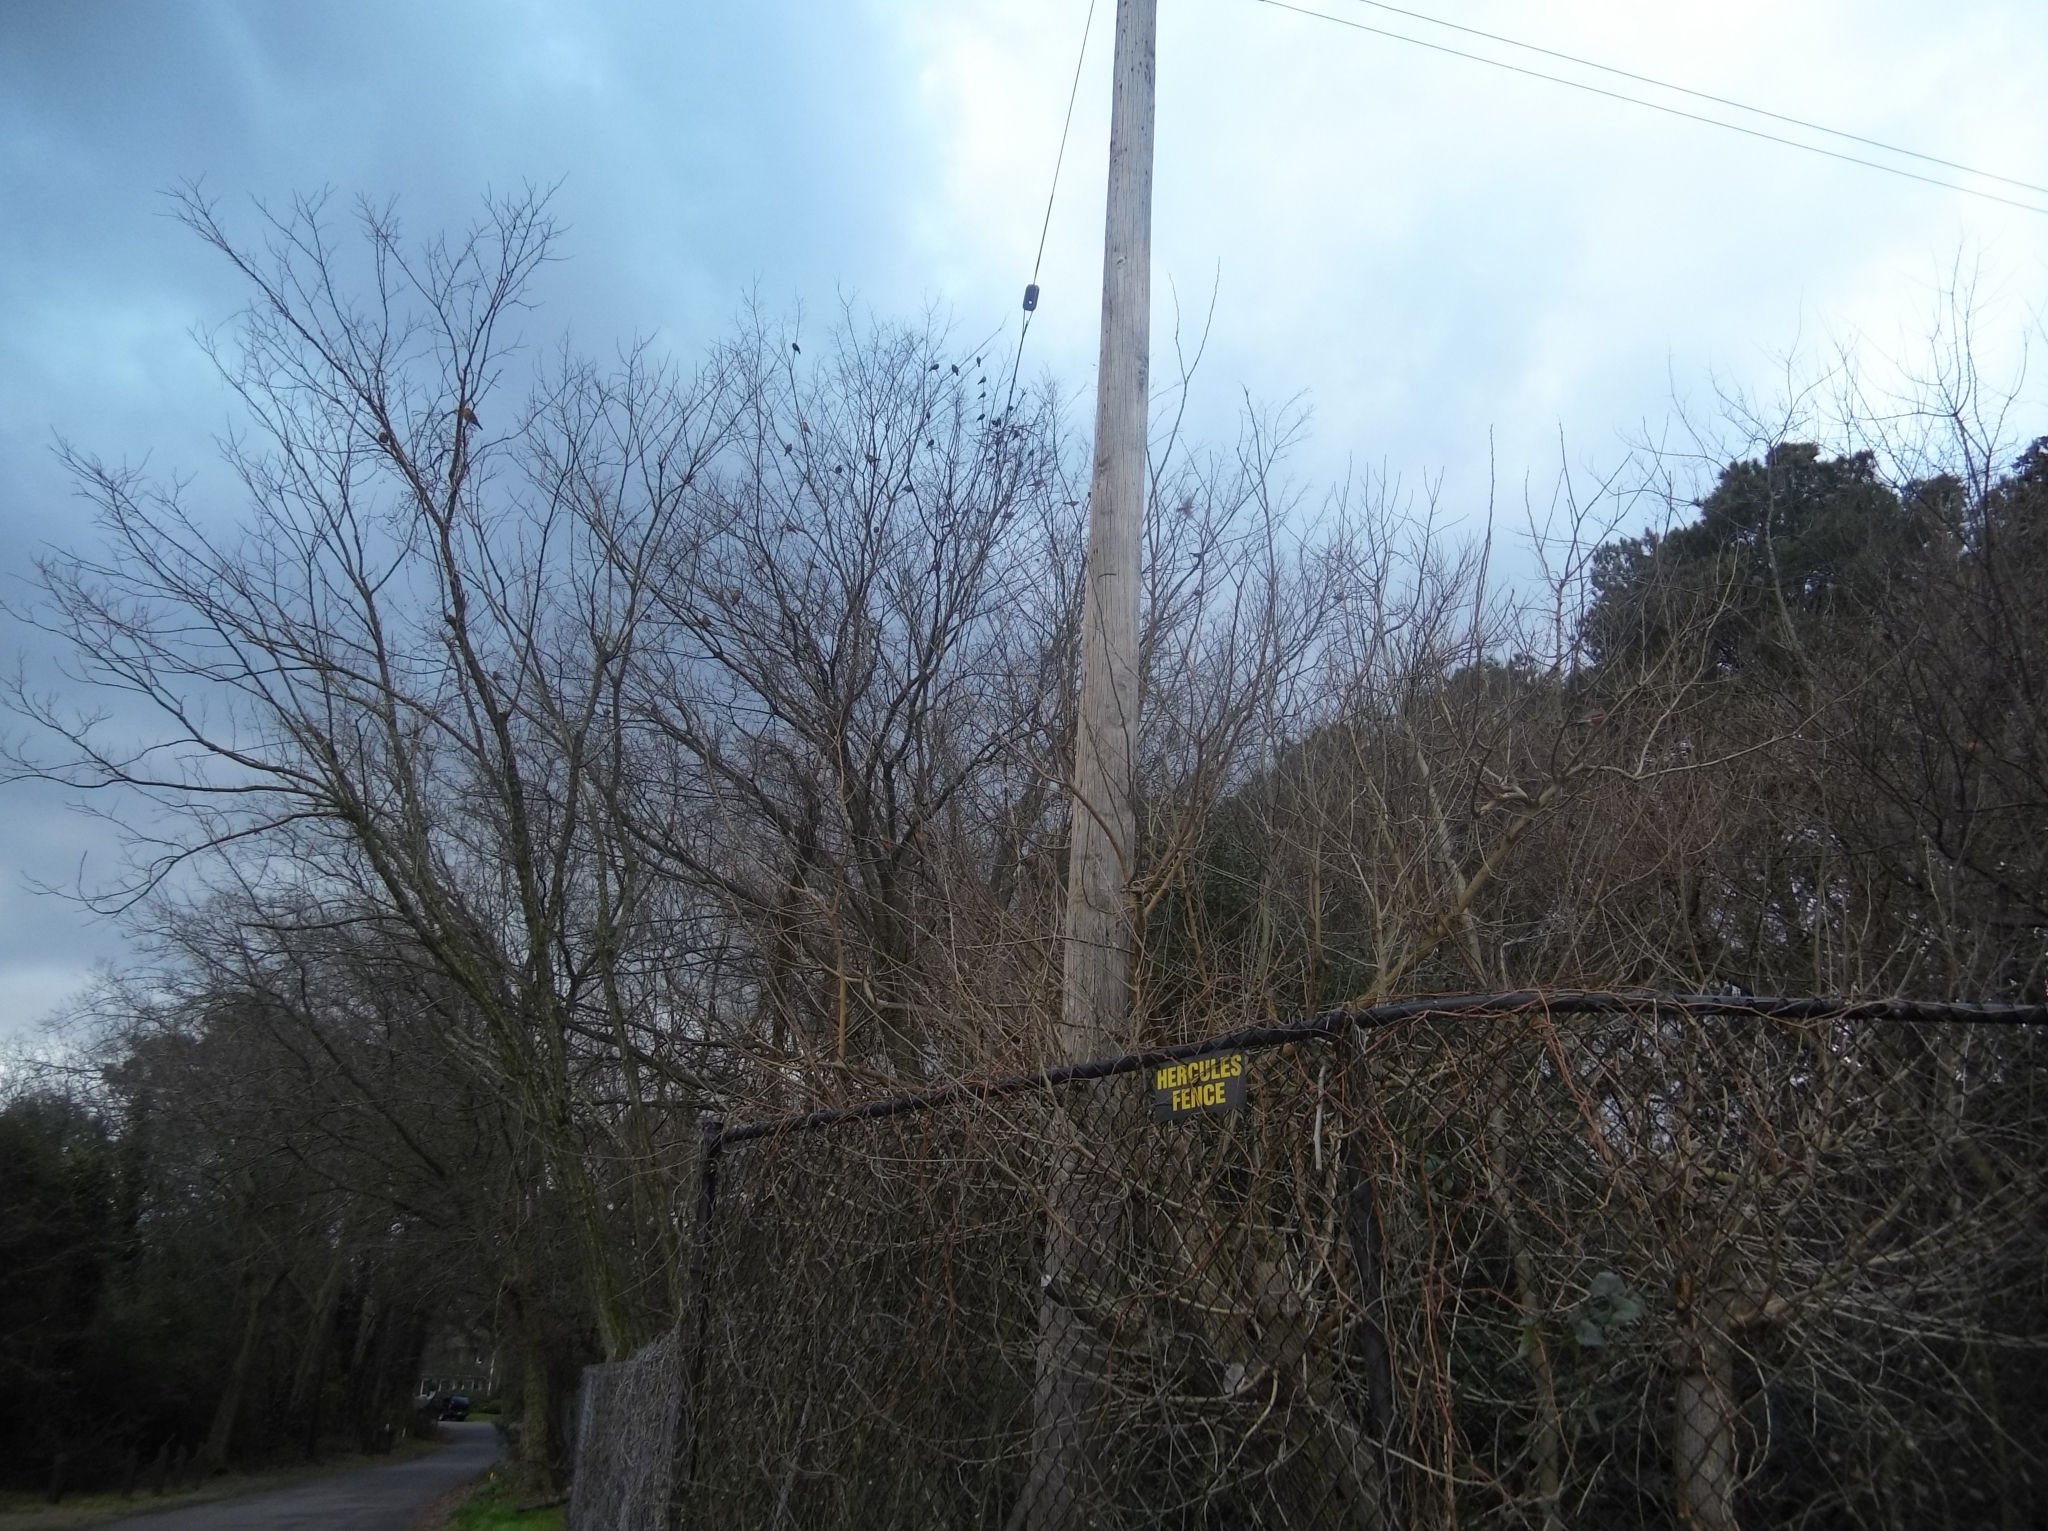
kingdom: Animalia
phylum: Chordata
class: Aves
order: Passeriformes
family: Turdidae
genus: Turdus
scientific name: Turdus migratorius
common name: American robin
